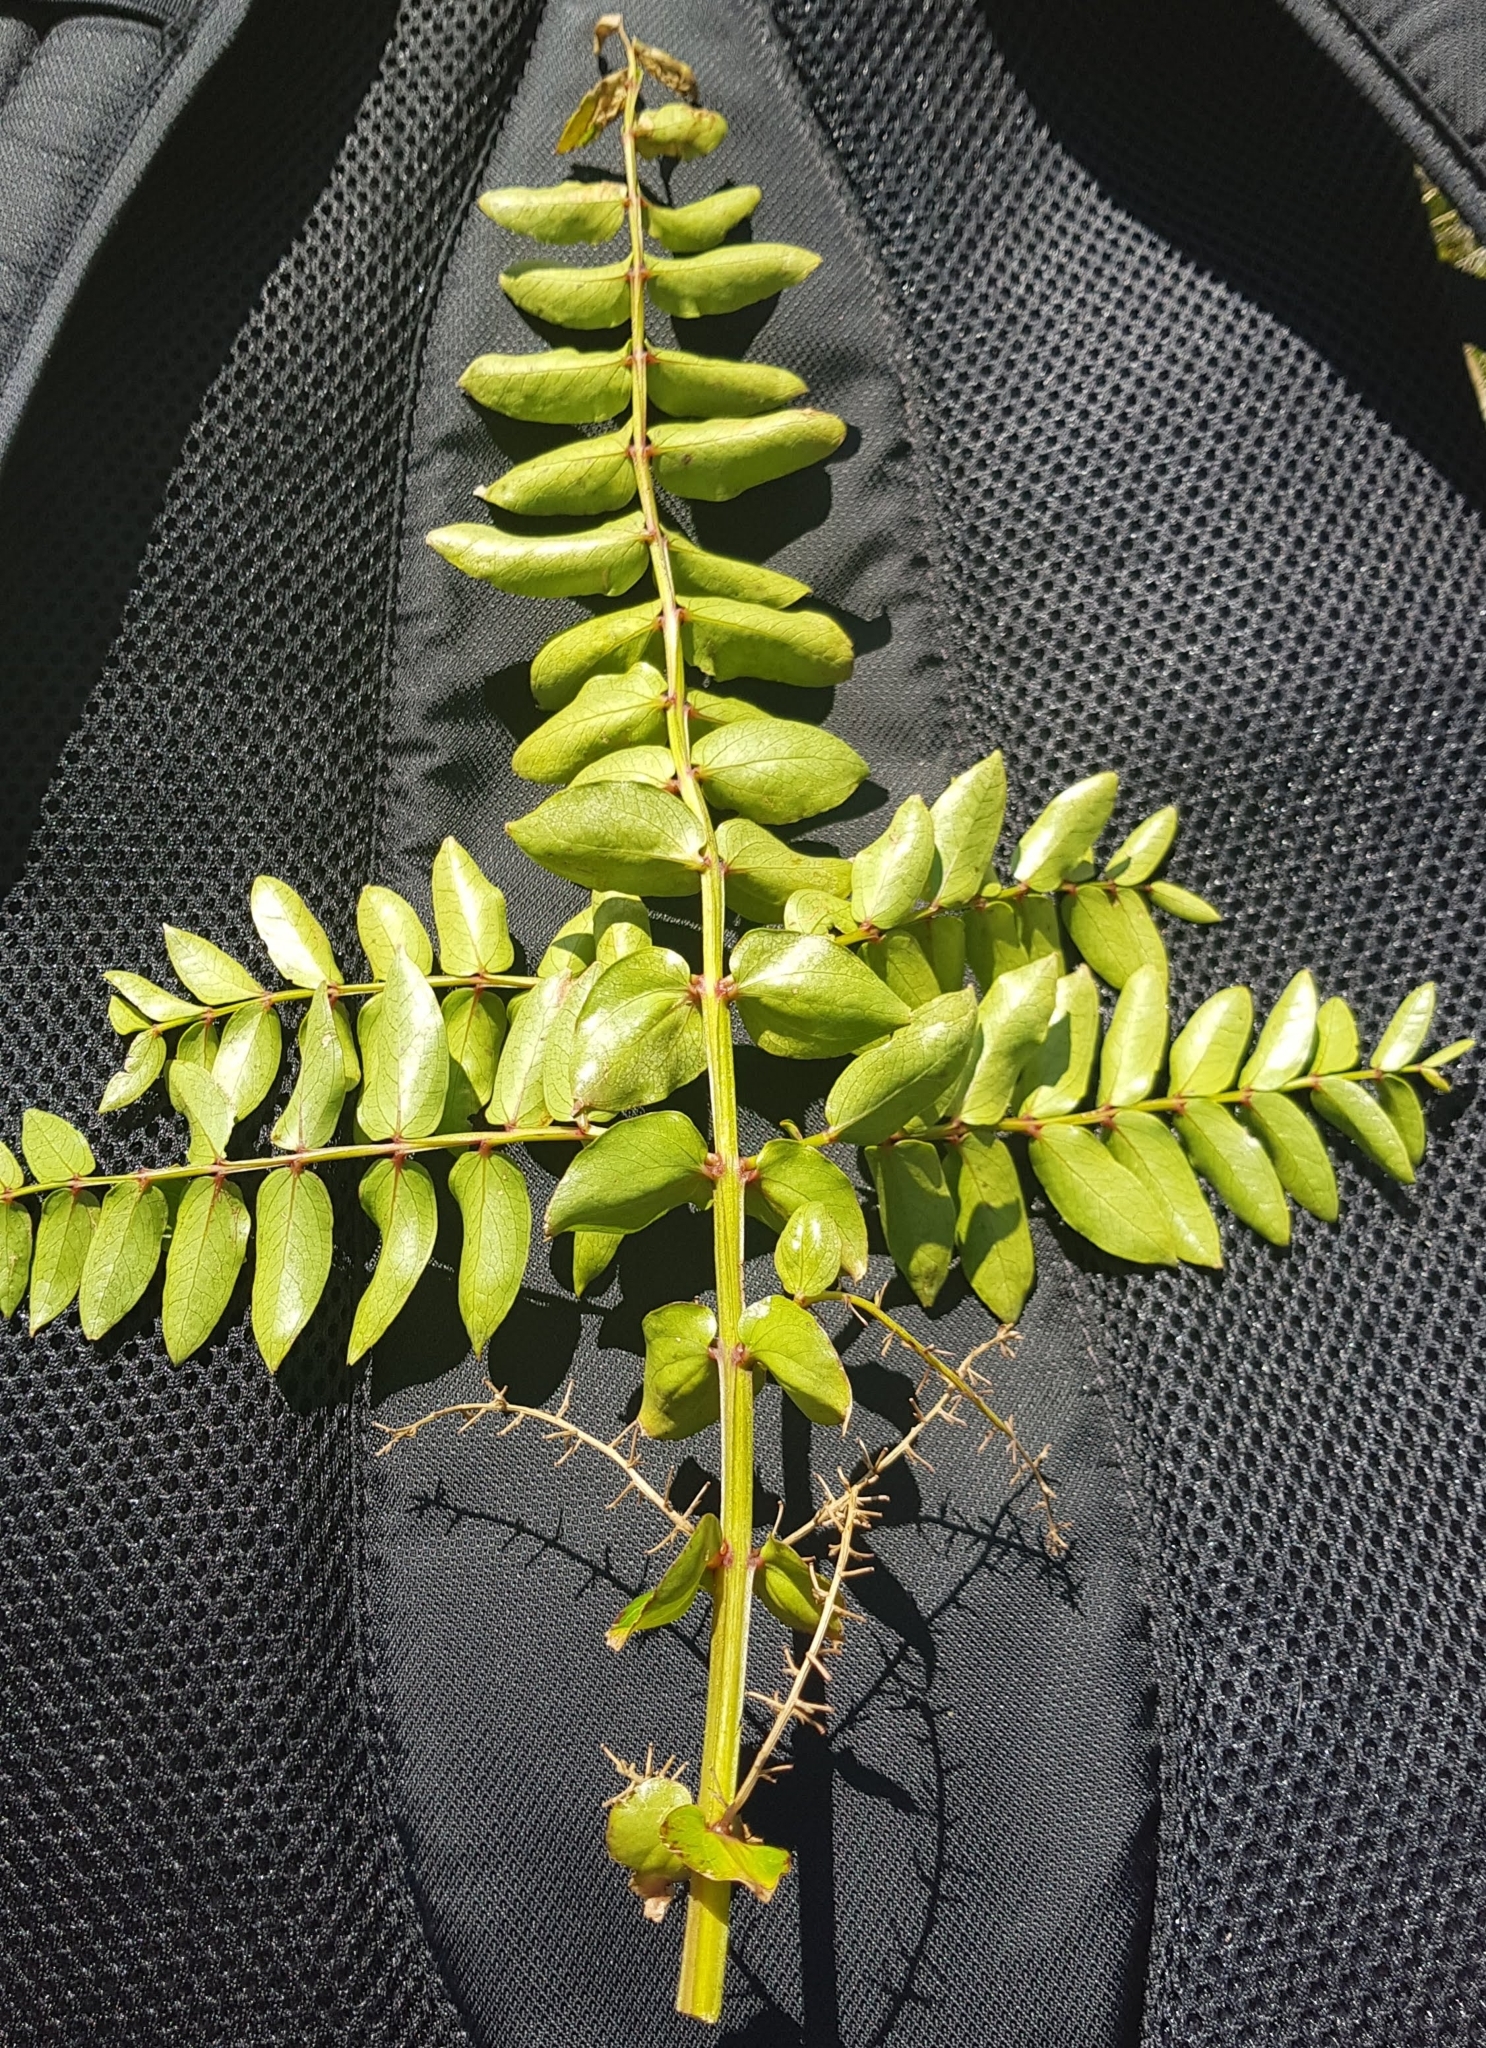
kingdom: Plantae
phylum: Tracheophyta
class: Magnoliopsida
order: Cucurbitales
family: Coriariaceae
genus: Coriaria
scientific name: Coriaria sarmentosa
